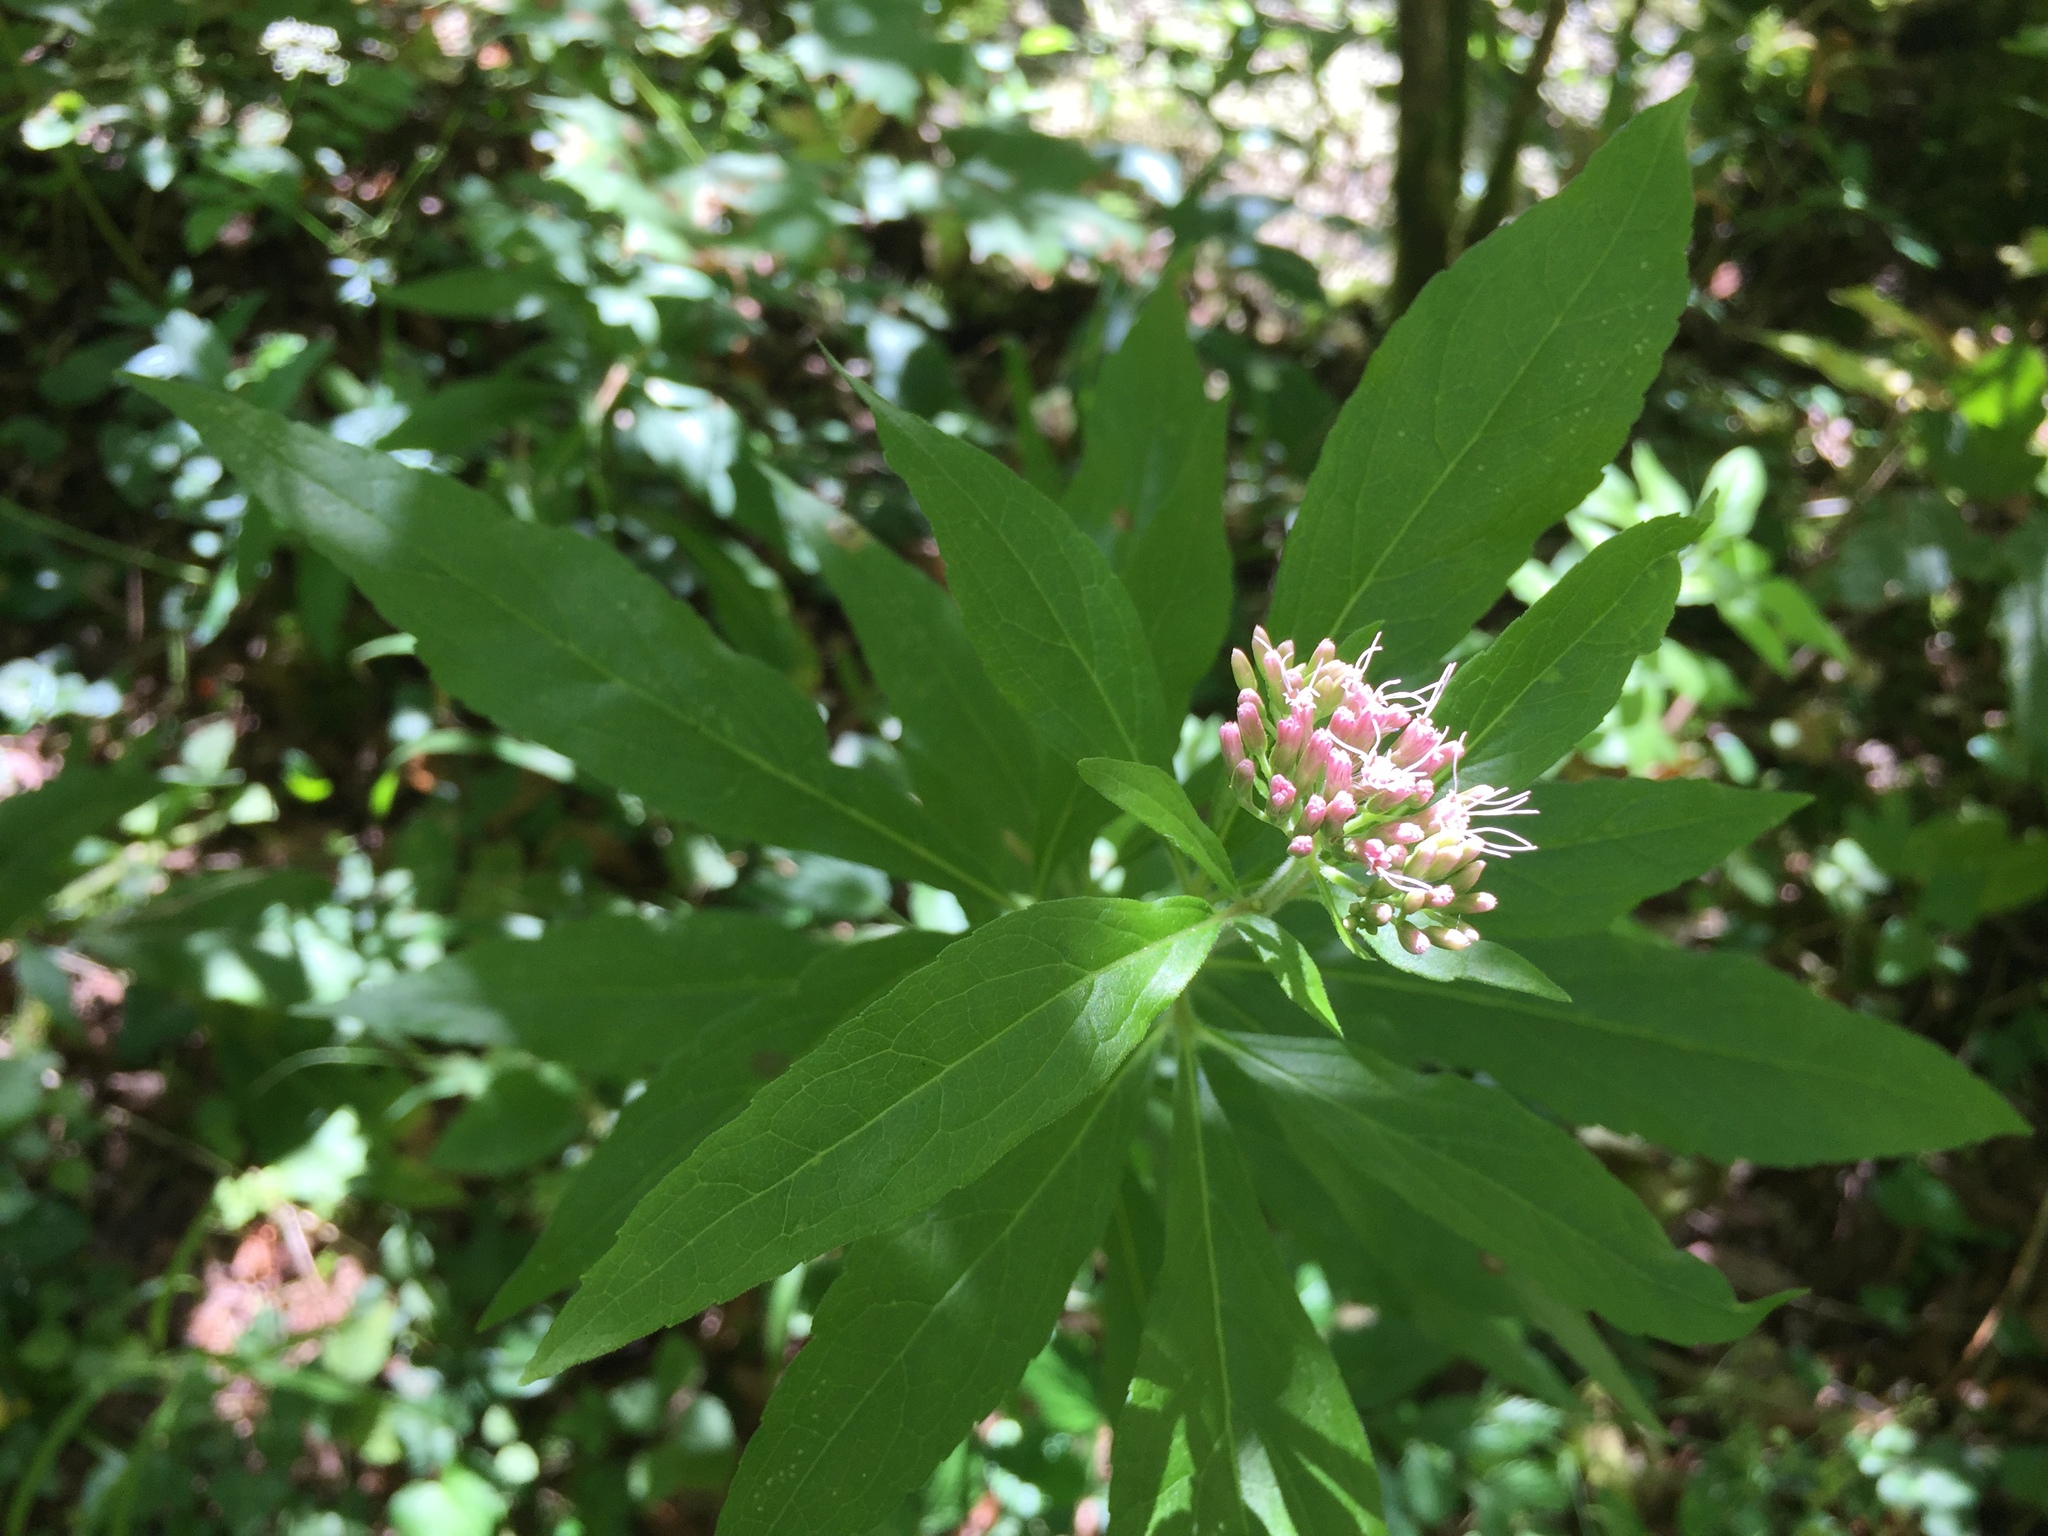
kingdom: Plantae
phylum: Tracheophyta
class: Magnoliopsida
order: Asterales
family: Asteraceae
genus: Eupatorium
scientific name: Eupatorium cannabinum
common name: Hemp-agrimony
